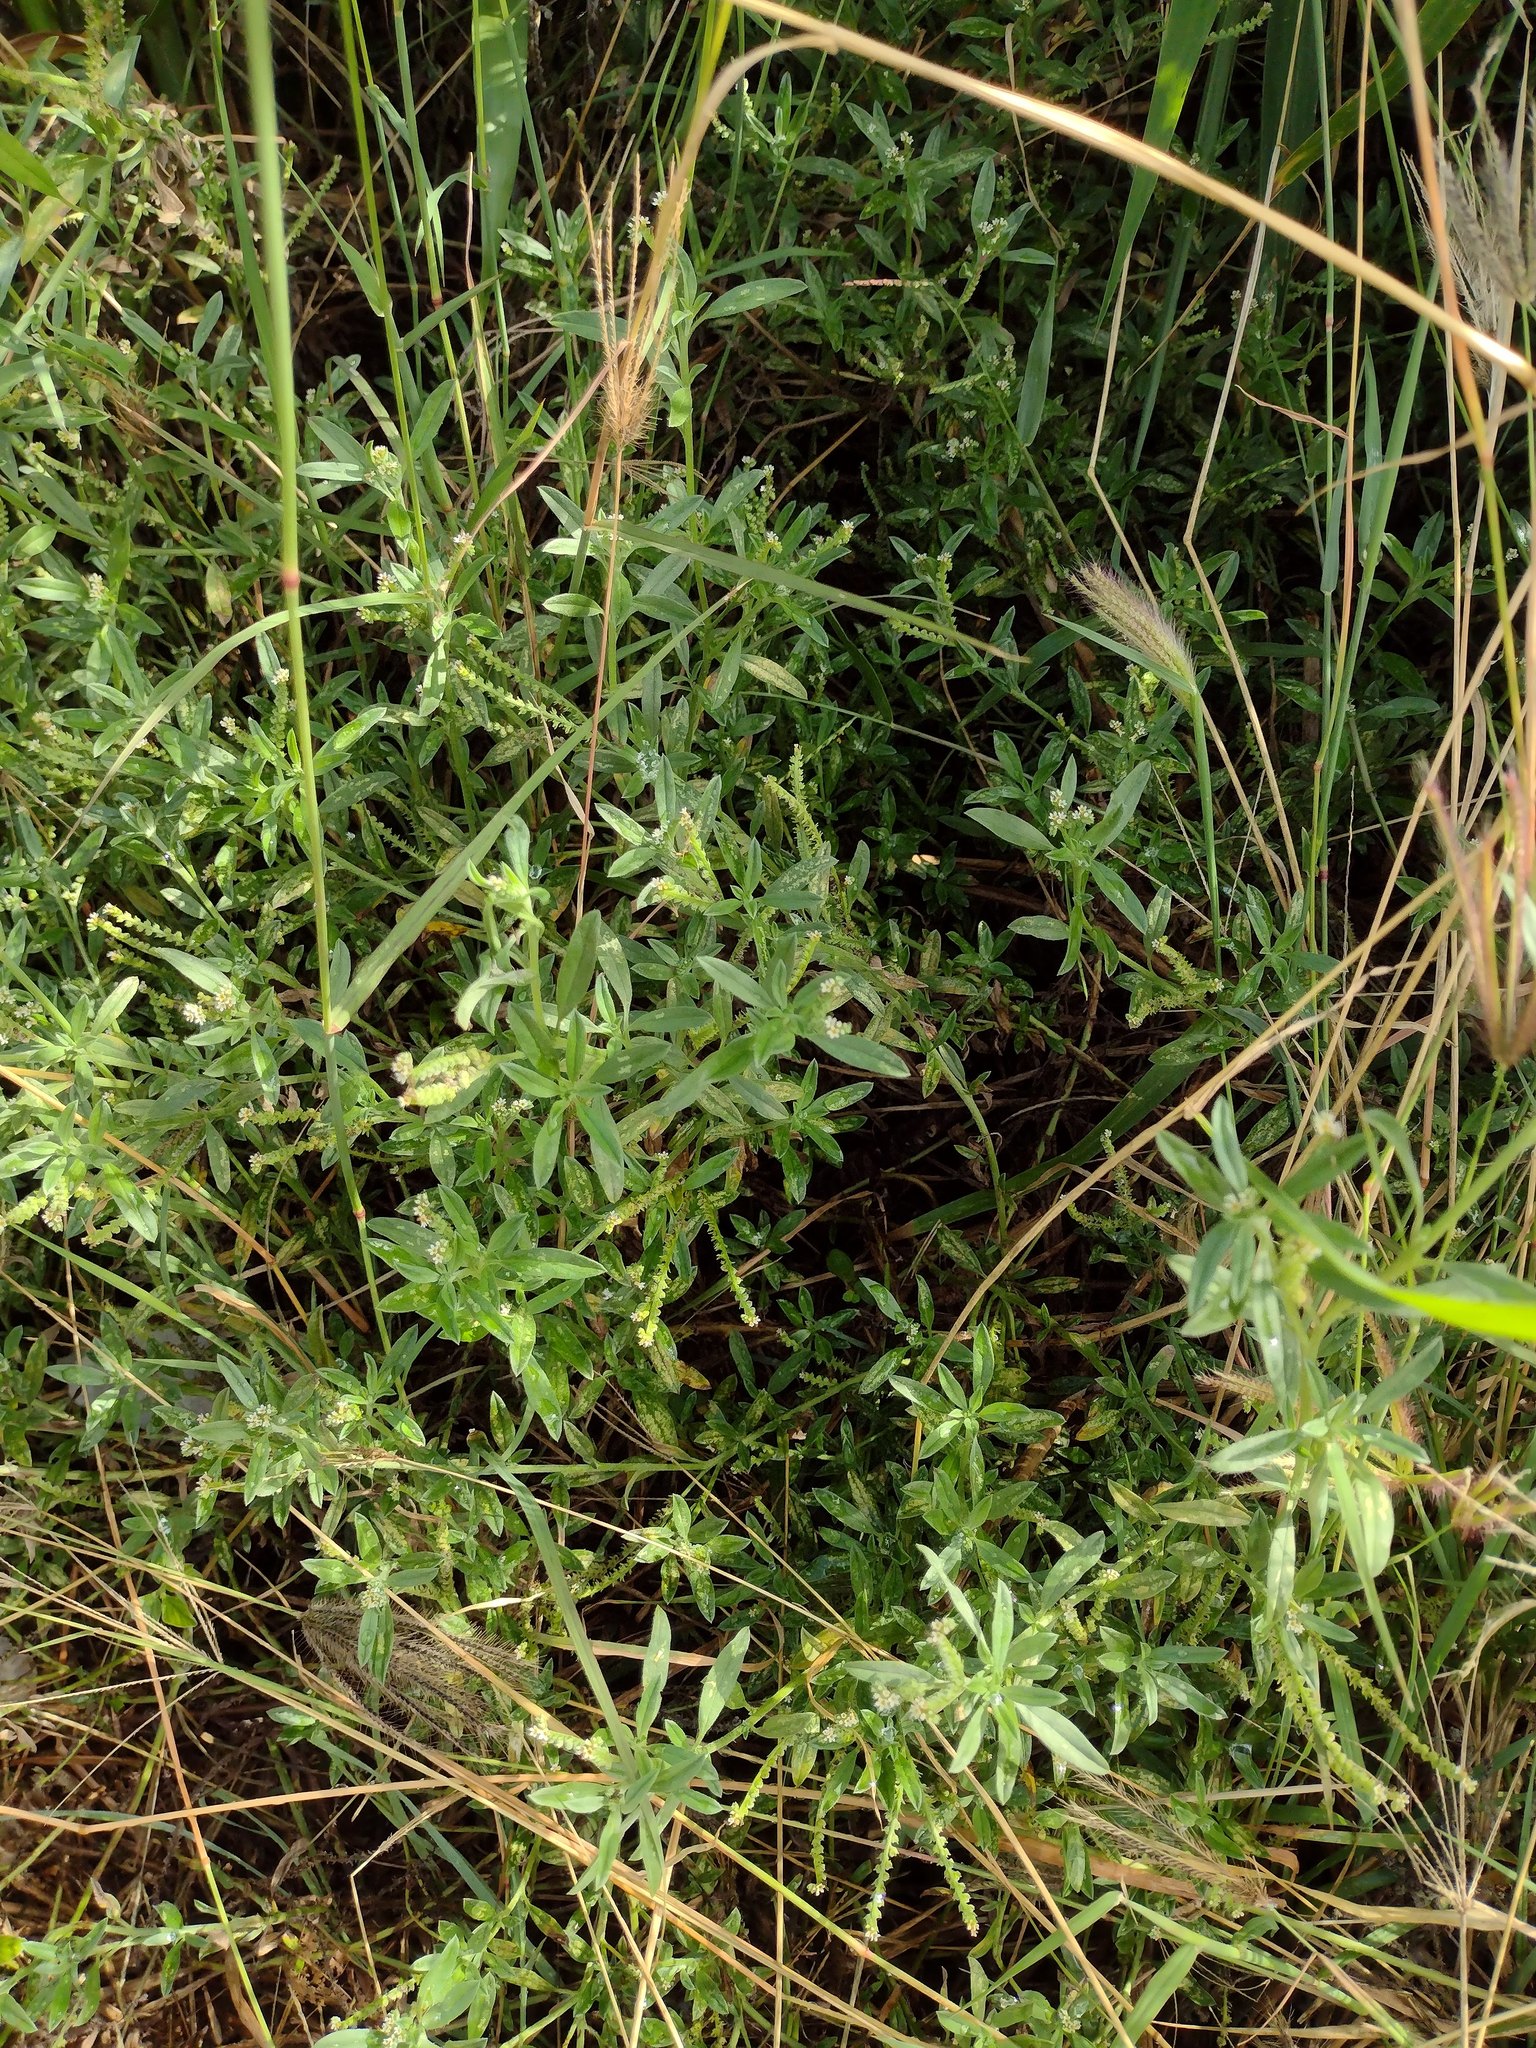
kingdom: Plantae
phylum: Tracheophyta
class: Magnoliopsida
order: Boraginales
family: Heliotropiaceae
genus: Euploca
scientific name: Euploca procumbens
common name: Fourspike heliotrope
